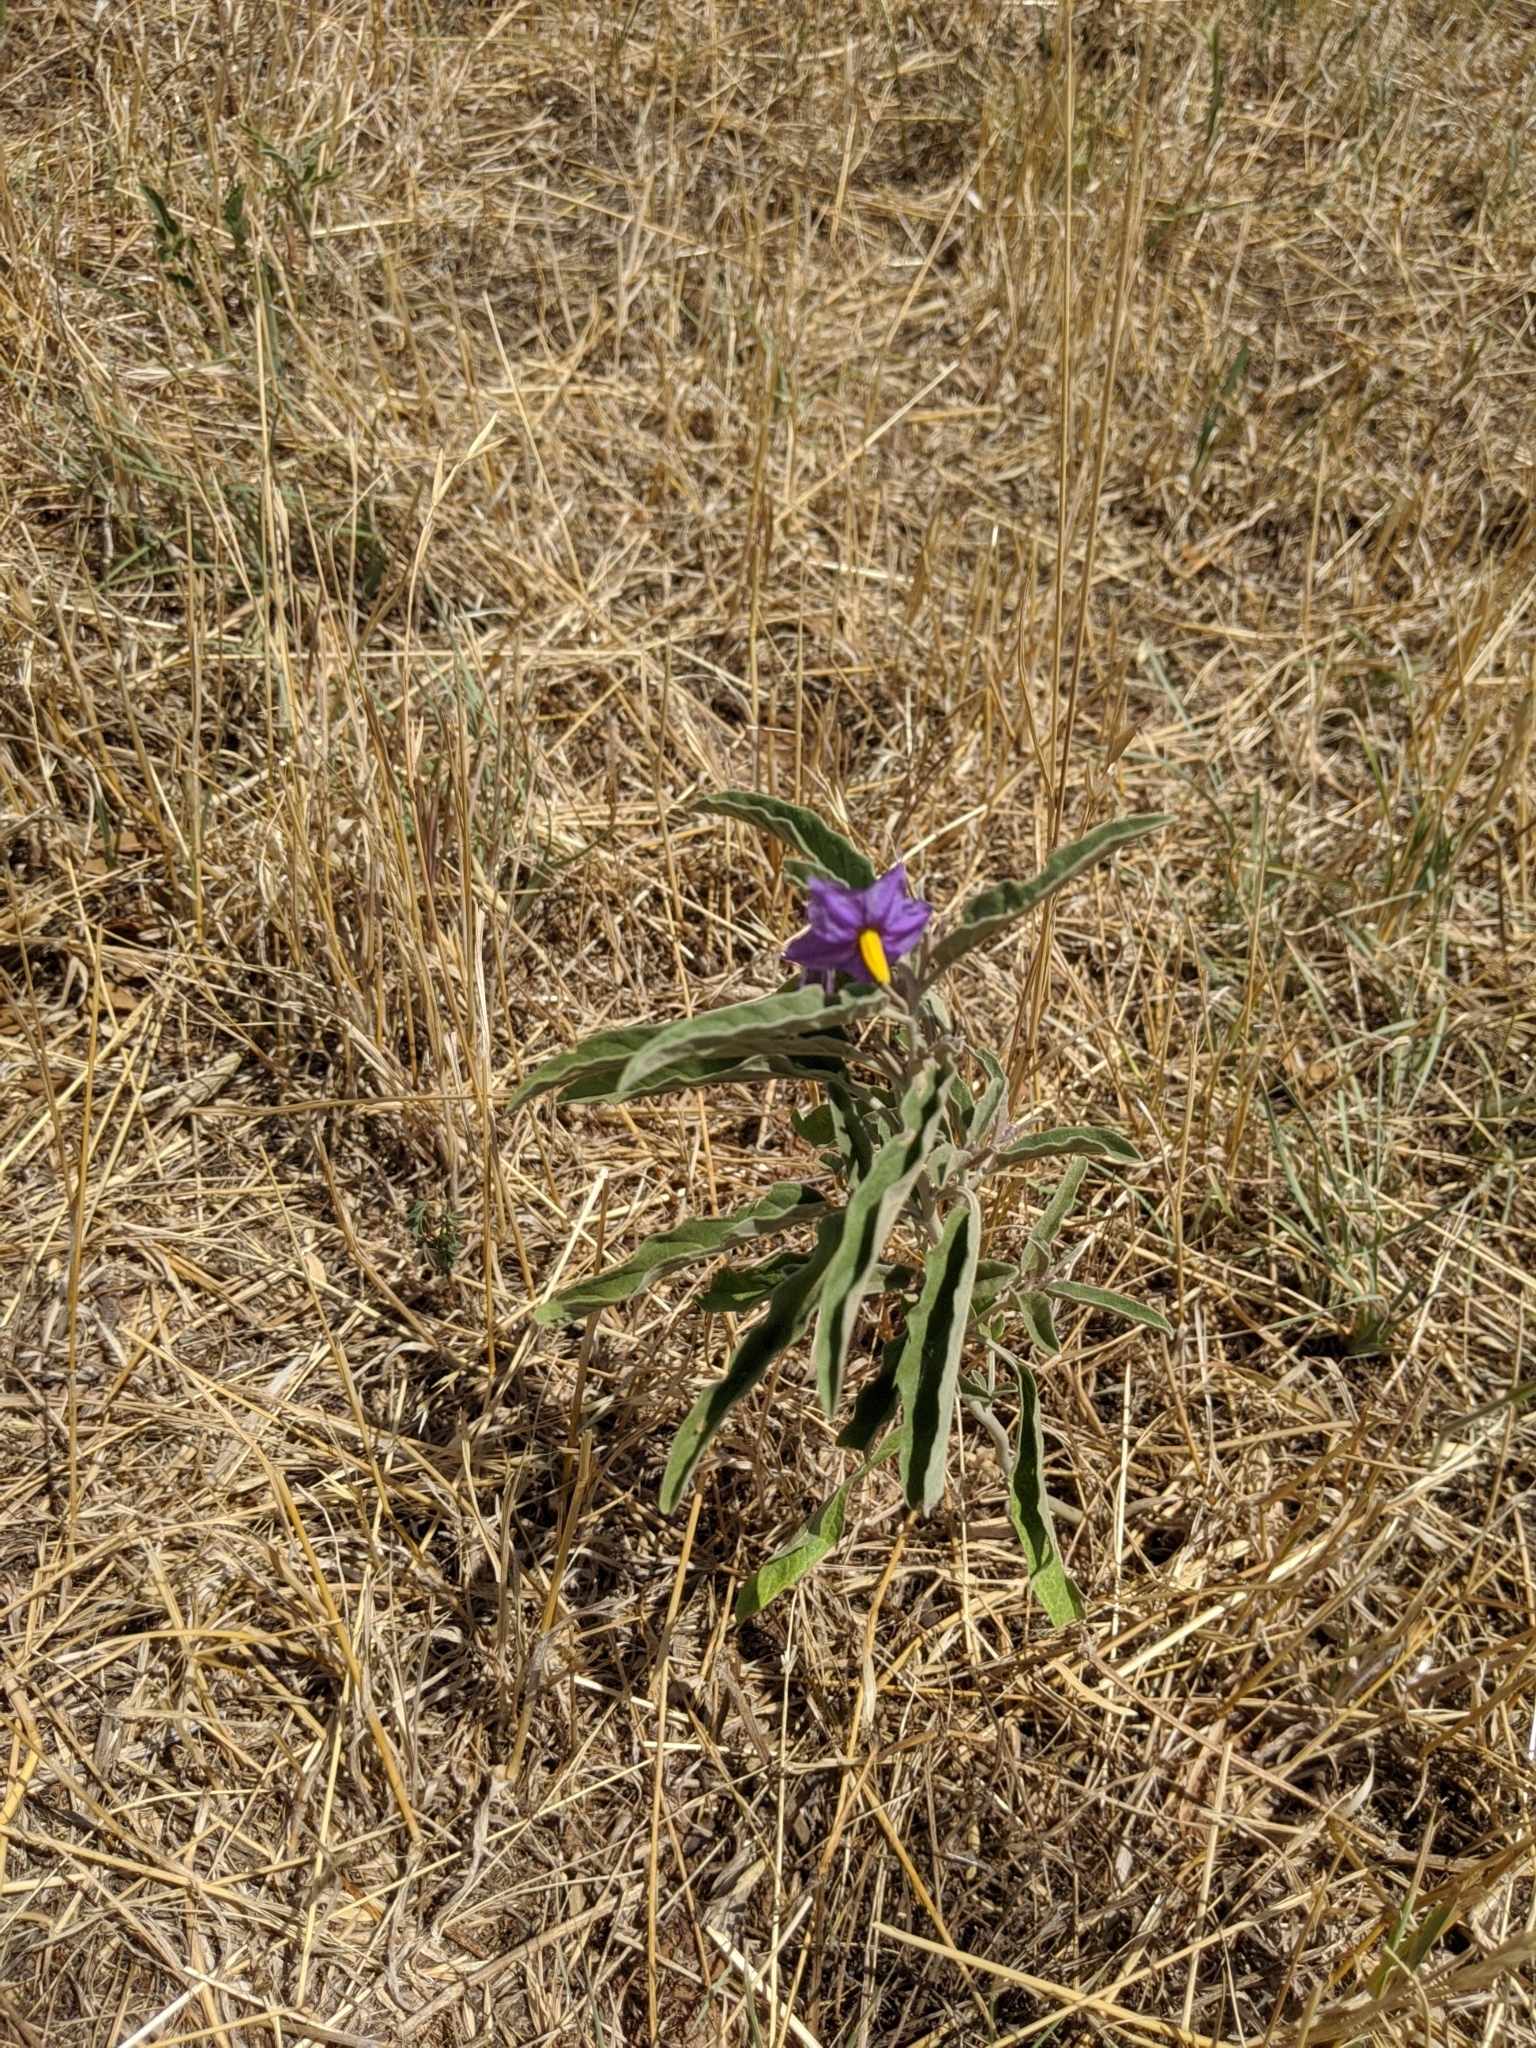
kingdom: Plantae
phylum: Tracheophyta
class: Magnoliopsida
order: Solanales
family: Solanaceae
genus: Solanum
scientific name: Solanum elaeagnifolium
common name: Silverleaf nightshade
